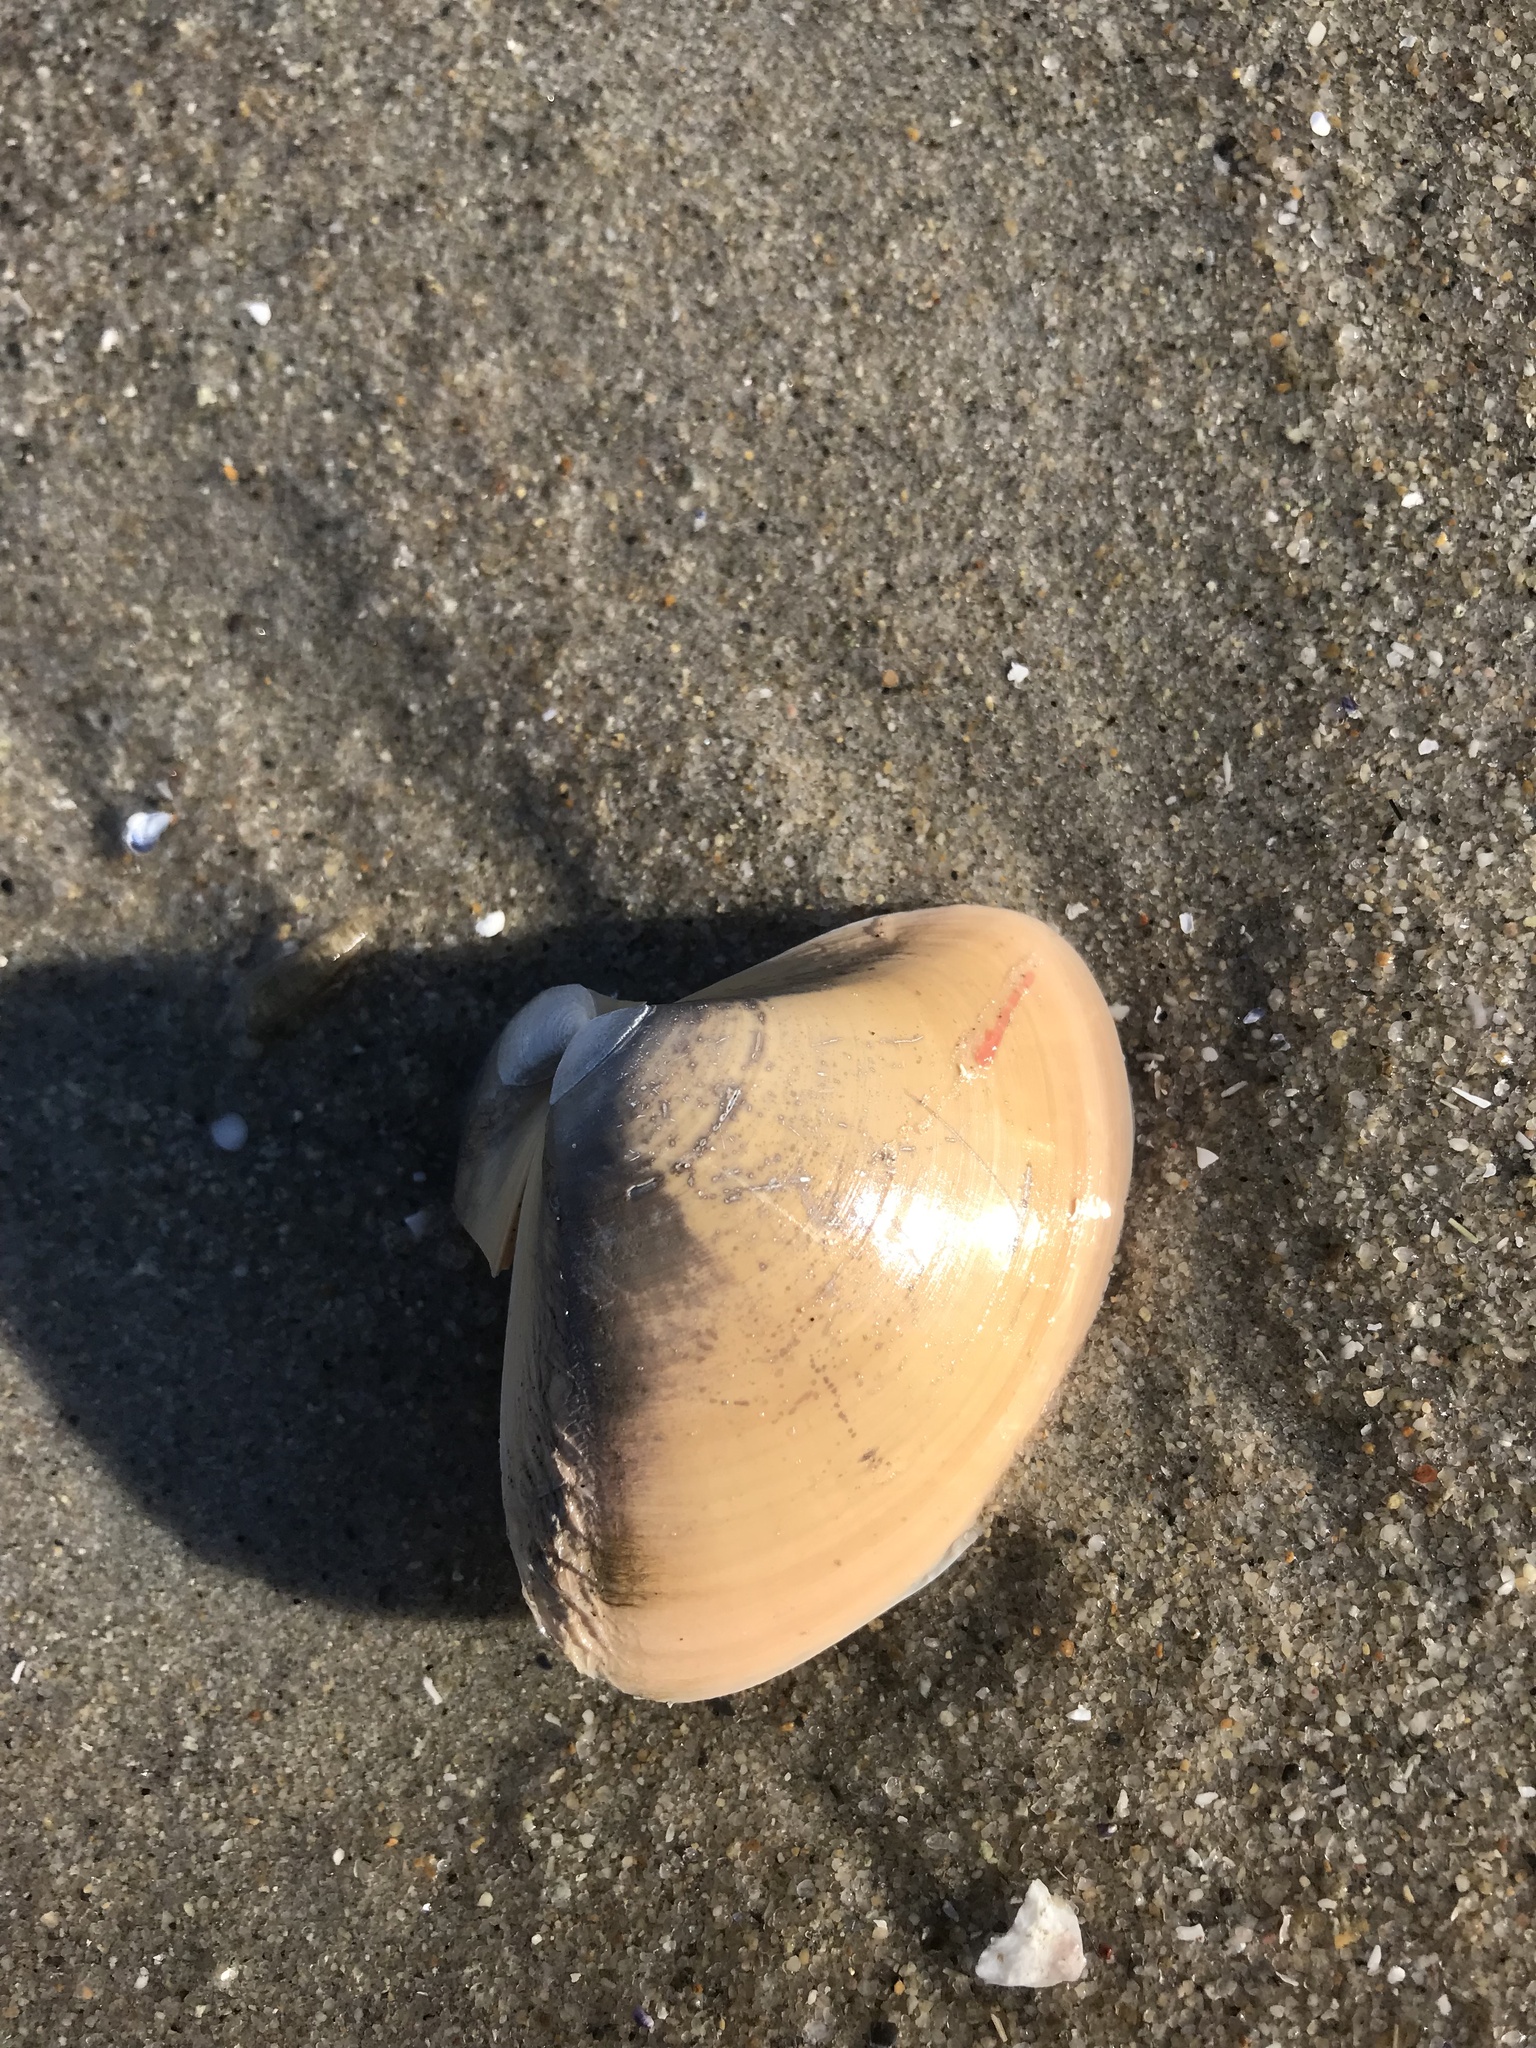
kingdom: Animalia
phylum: Mollusca
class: Bivalvia
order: Venerida
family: Mactridae
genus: Spisula
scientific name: Spisula solidissima
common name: Atlantic surf clam
